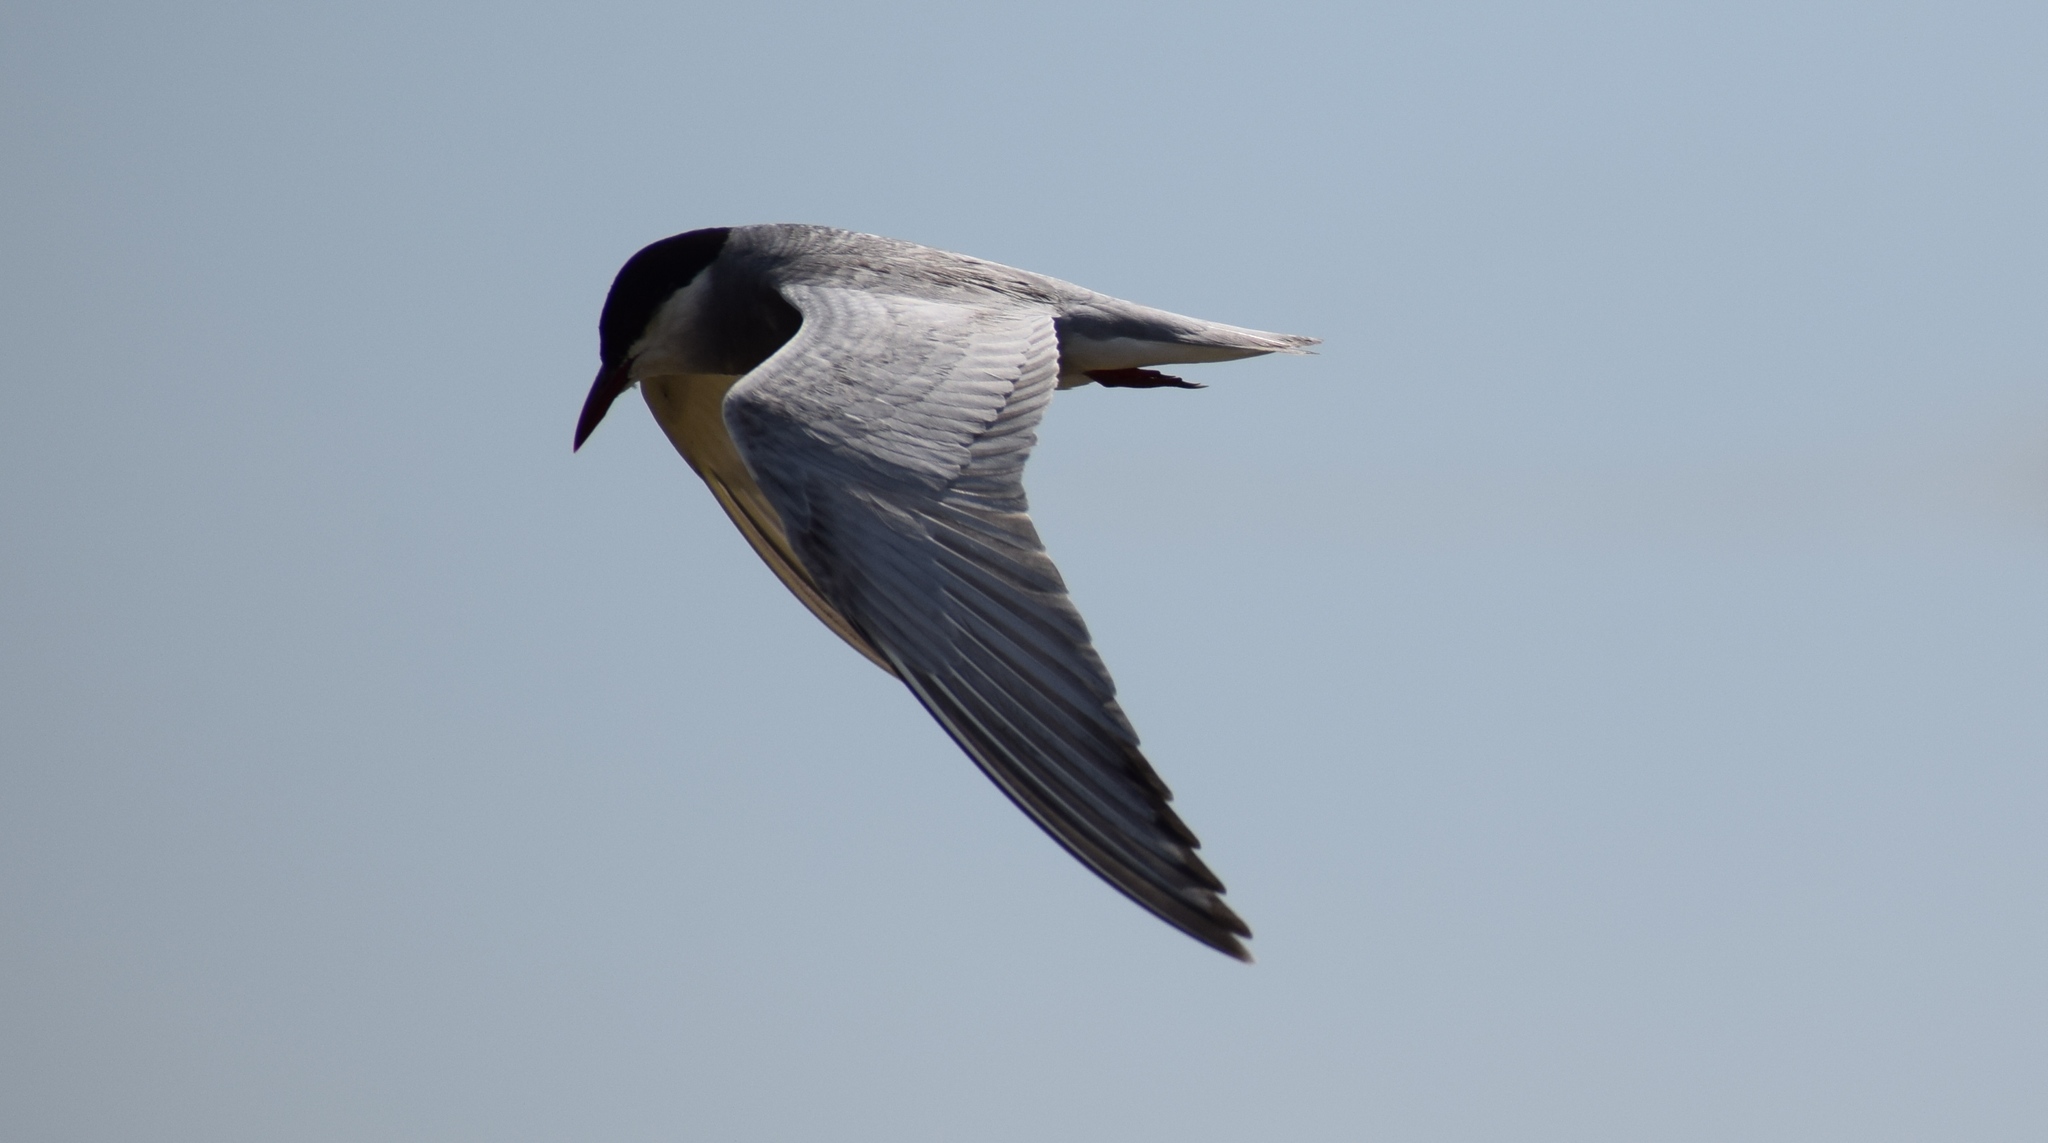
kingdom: Animalia
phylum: Chordata
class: Aves
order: Charadriiformes
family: Laridae
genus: Chlidonias
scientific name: Chlidonias hybrida
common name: Whiskered tern
